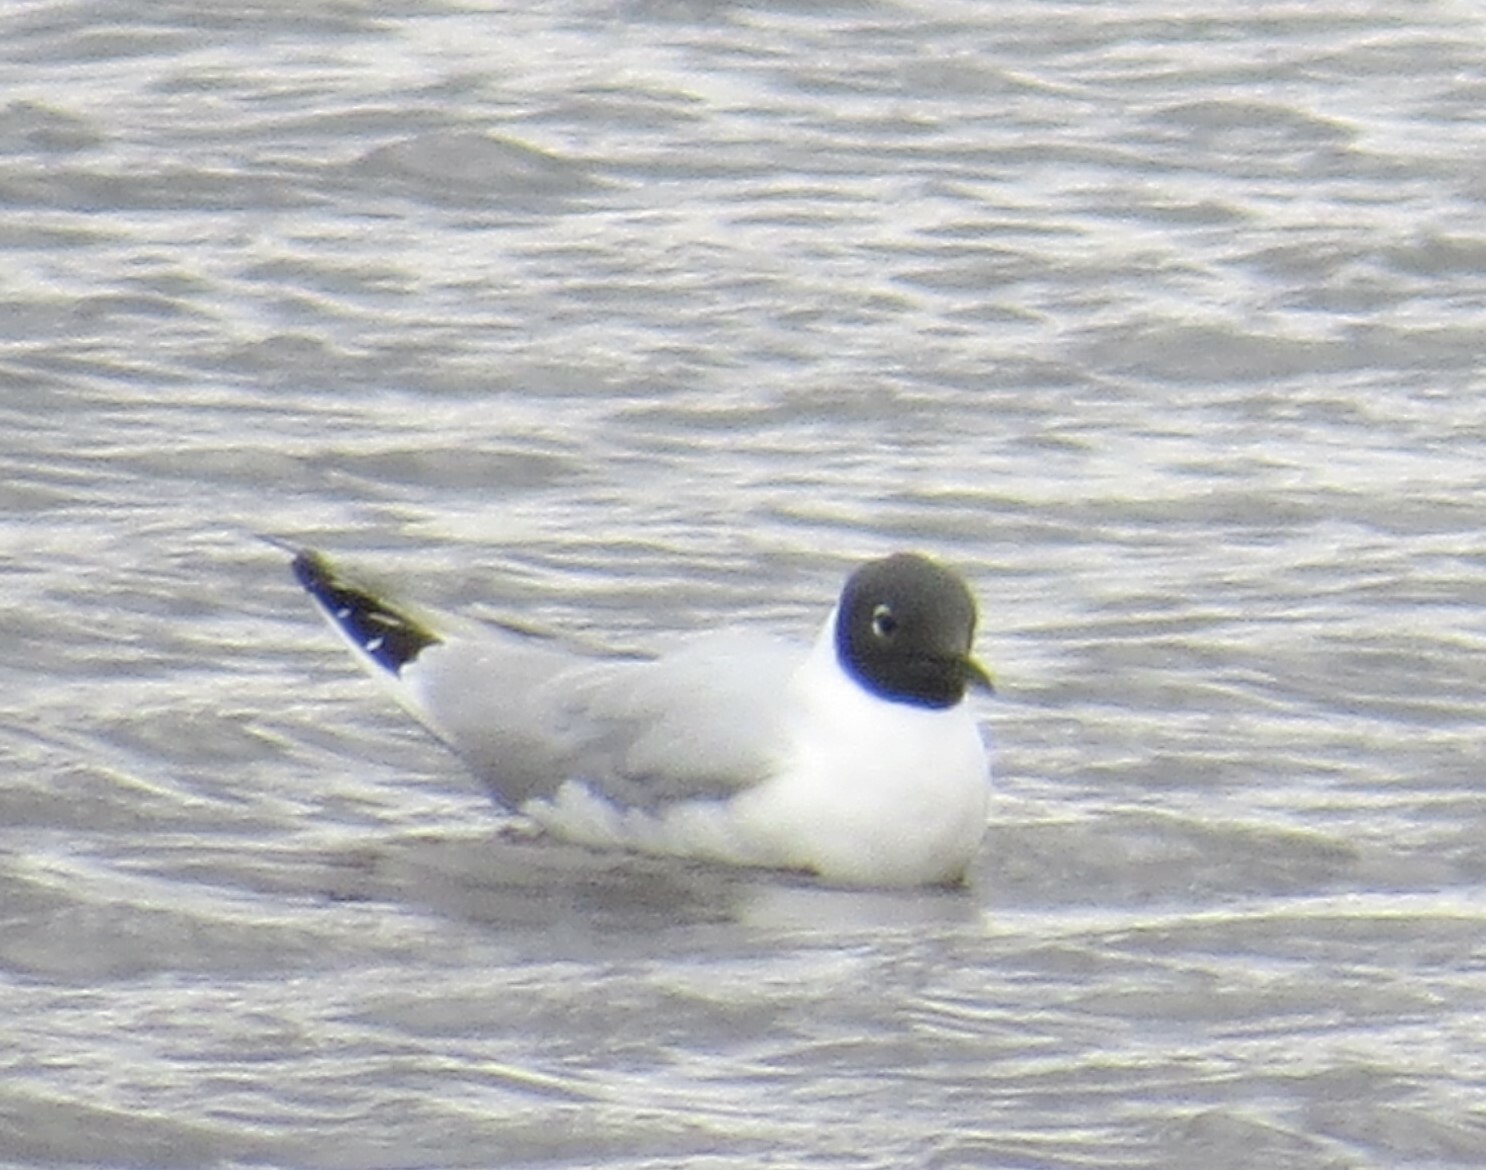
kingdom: Animalia
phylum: Chordata
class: Aves
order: Charadriiformes
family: Laridae
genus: Chroicocephalus
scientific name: Chroicocephalus philadelphia
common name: Bonaparte's gull
